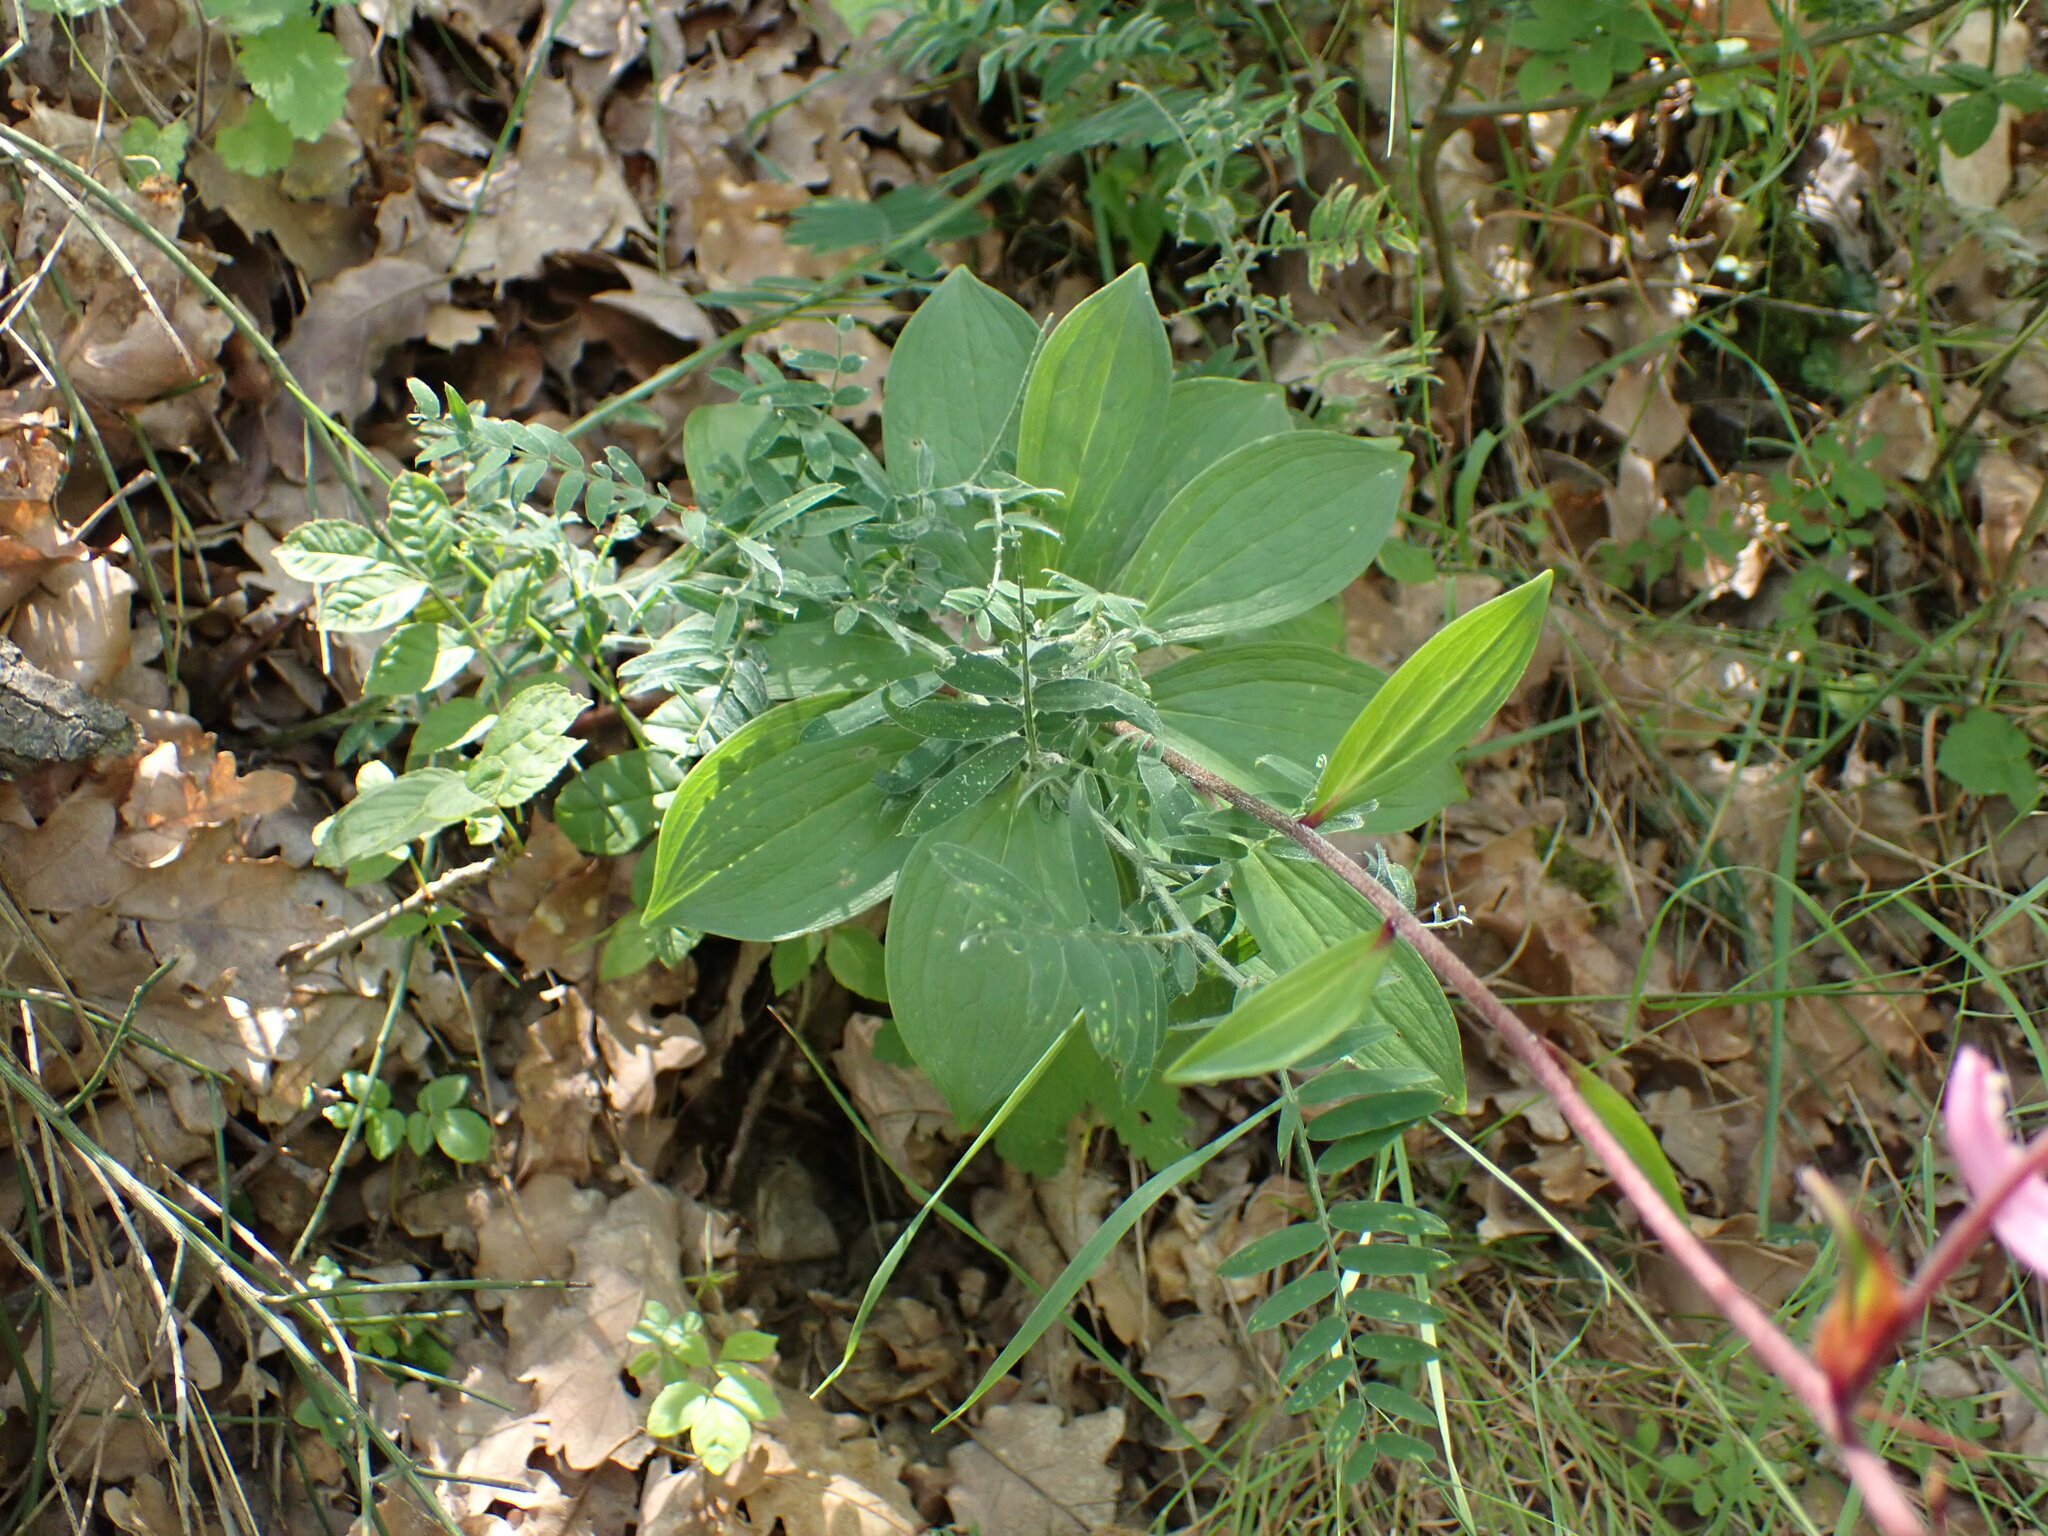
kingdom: Plantae
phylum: Tracheophyta
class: Liliopsida
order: Liliales
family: Liliaceae
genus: Lilium
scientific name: Lilium martagon
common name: Martagon lily
